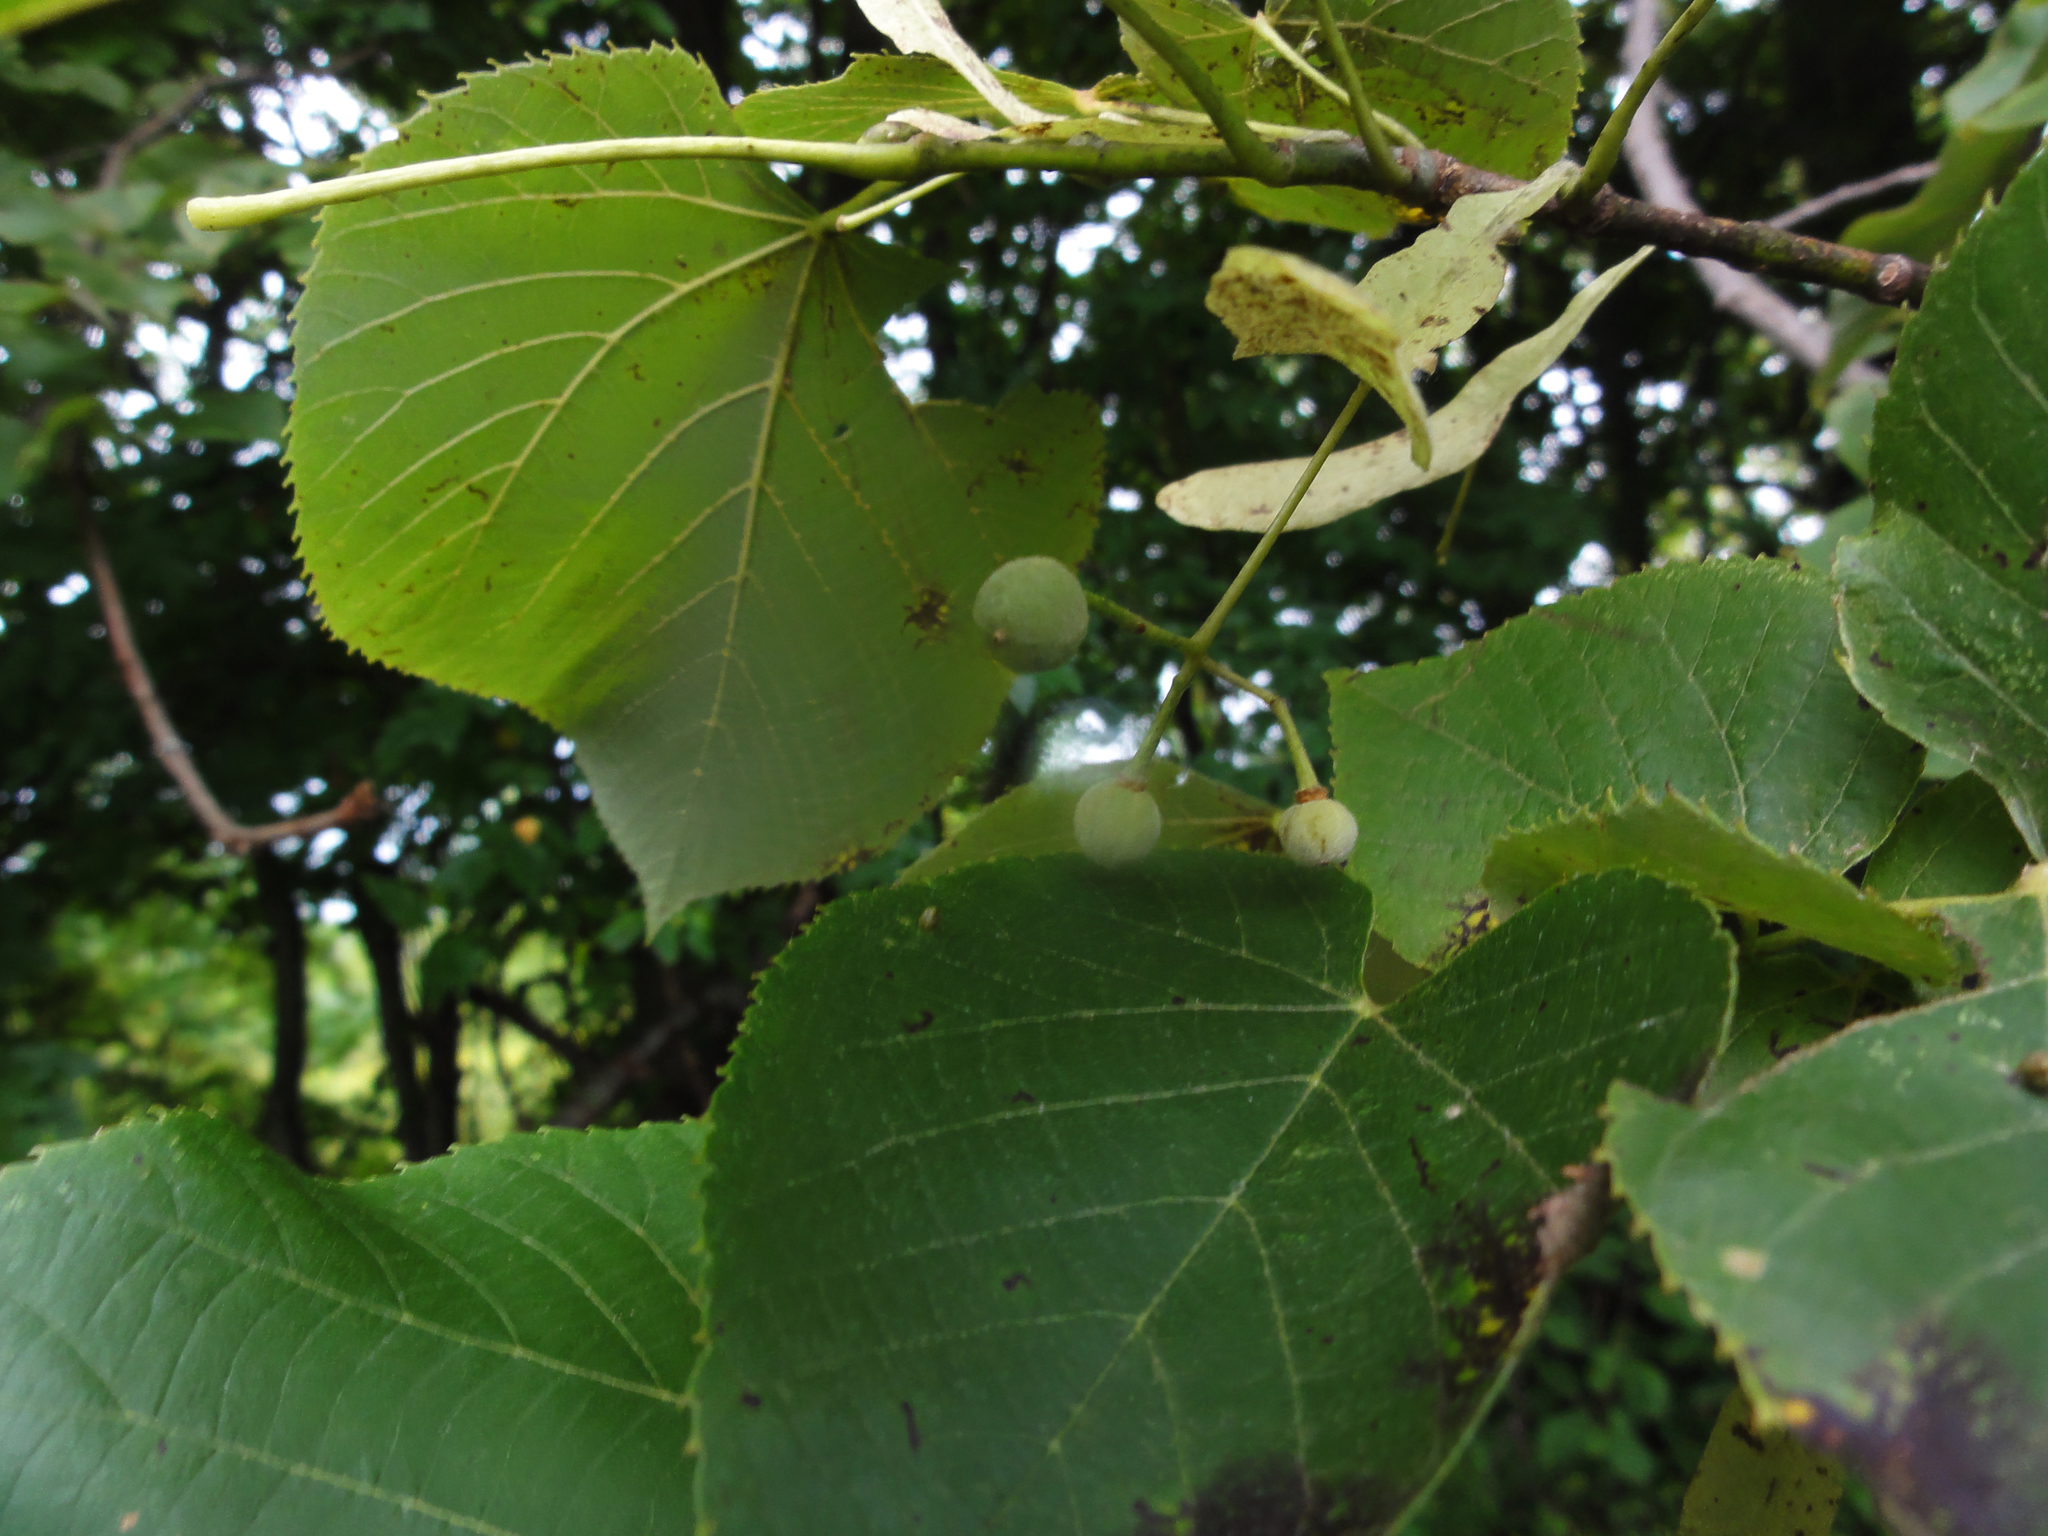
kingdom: Plantae
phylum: Tracheophyta
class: Magnoliopsida
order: Malvales
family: Malvaceae
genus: Tilia
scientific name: Tilia americana
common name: Basswood
